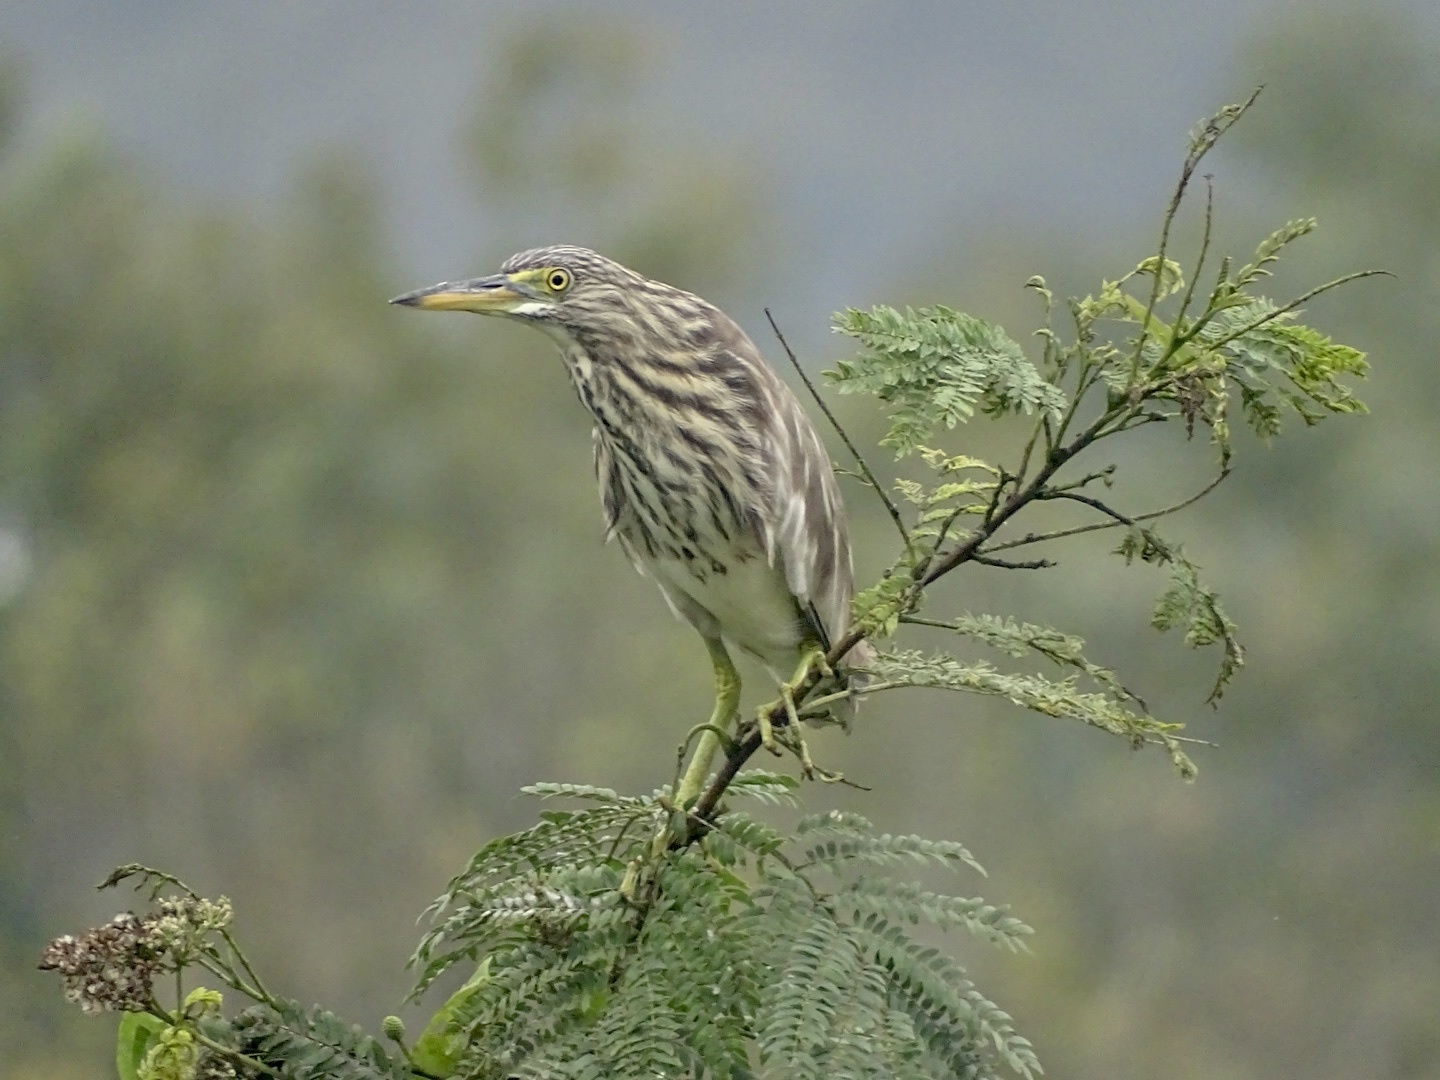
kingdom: Animalia
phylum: Chordata
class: Aves
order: Pelecaniformes
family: Ardeidae
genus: Ardeola
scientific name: Ardeola bacchus
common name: Chinese pond heron
